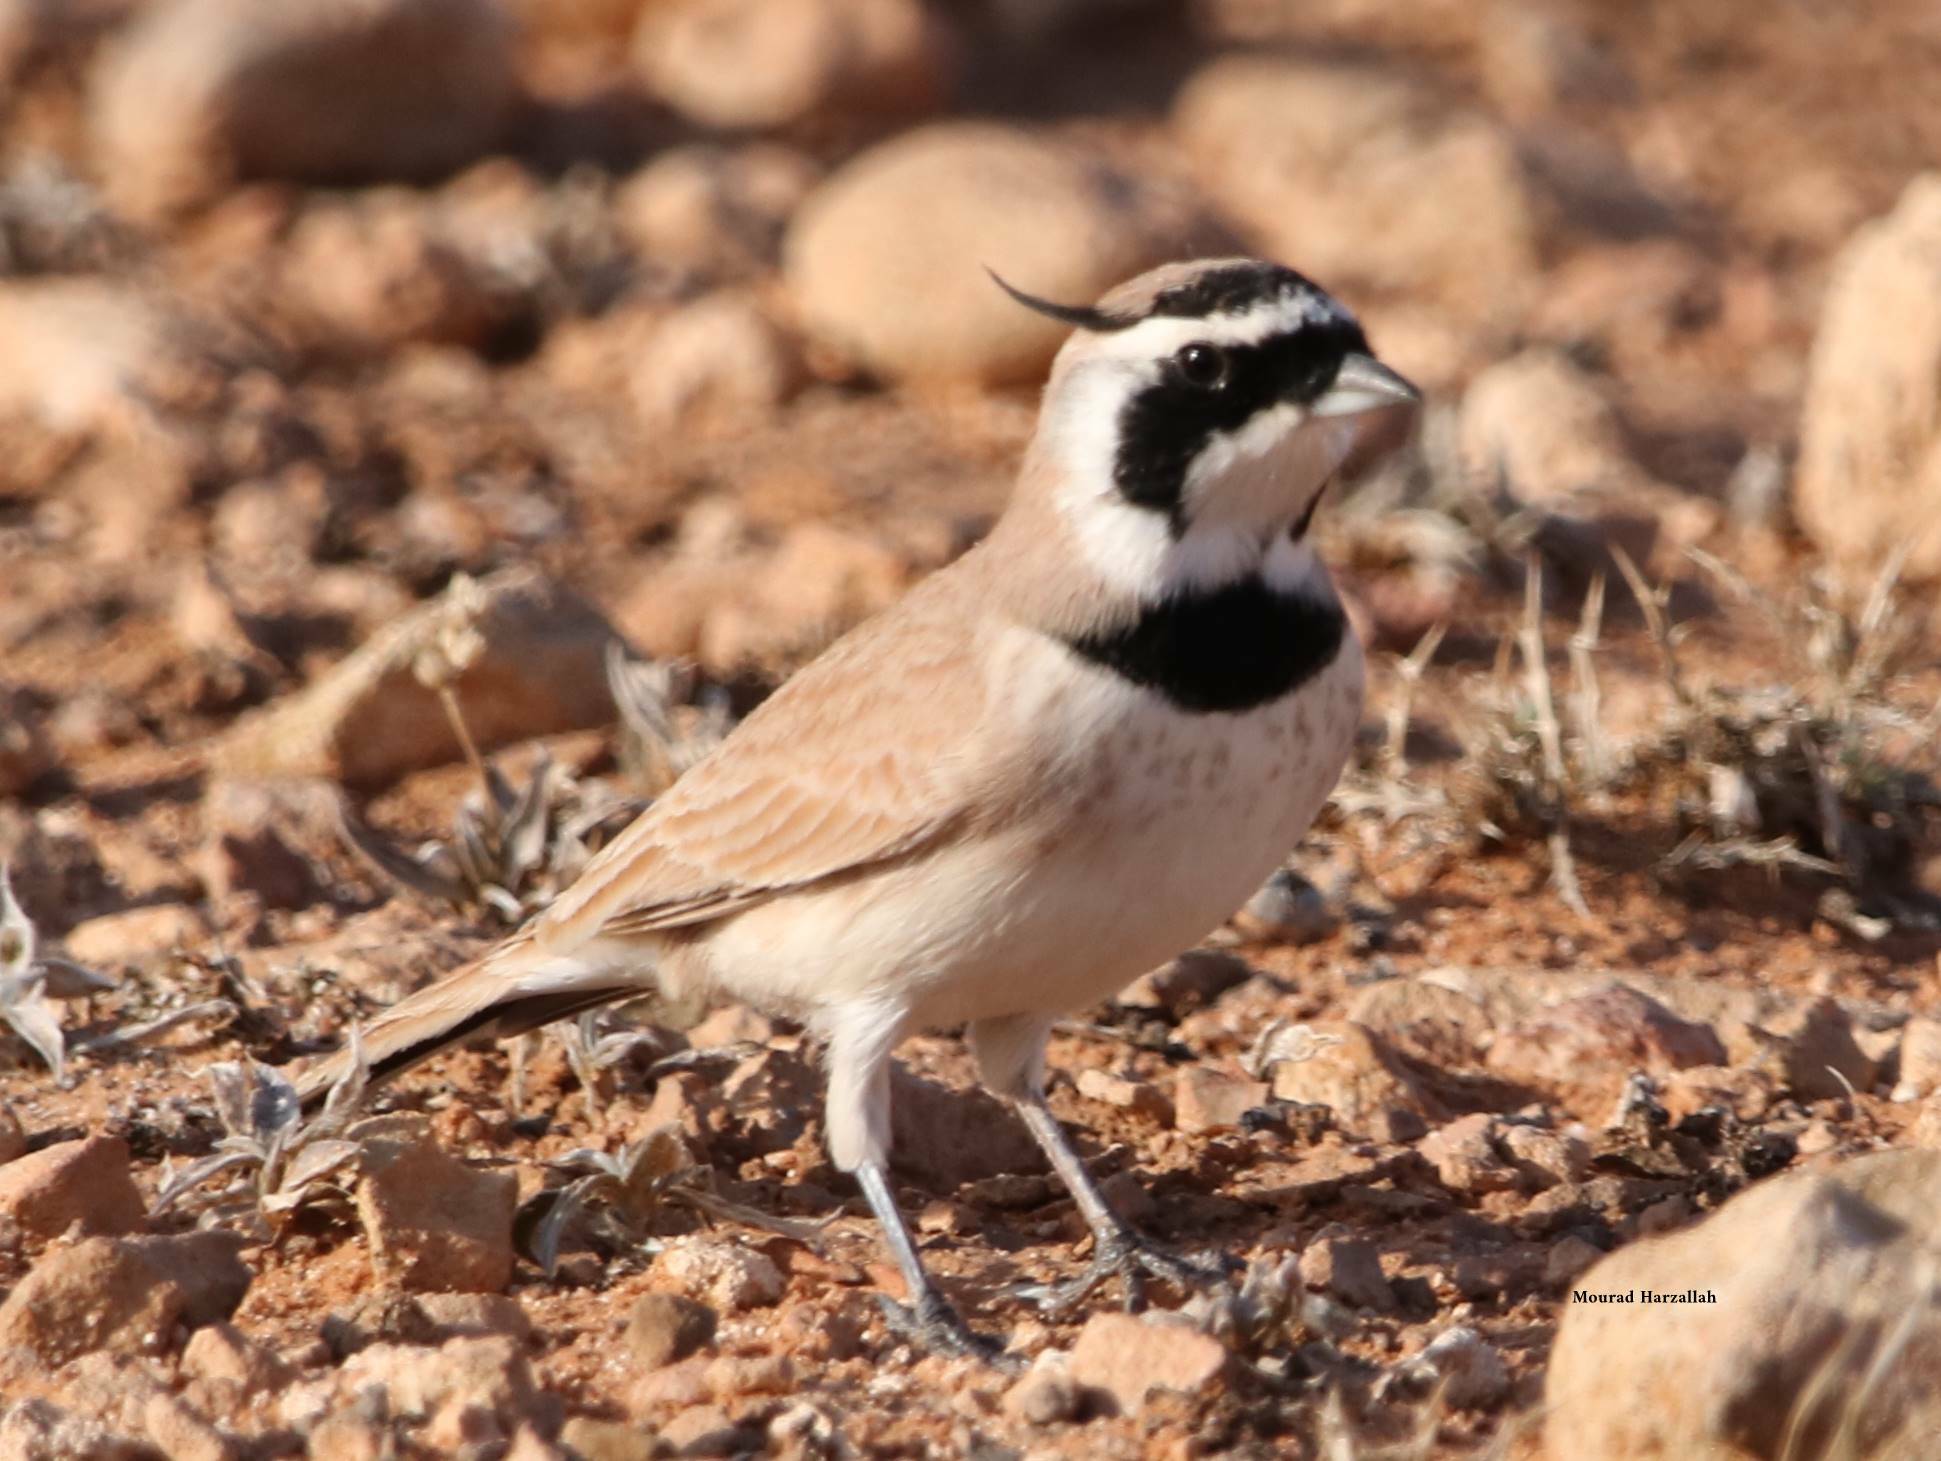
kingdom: Animalia
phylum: Chordata
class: Aves
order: Passeriformes
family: Alaudidae
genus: Eremophila
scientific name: Eremophila bilopha
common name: Temminck's lark
